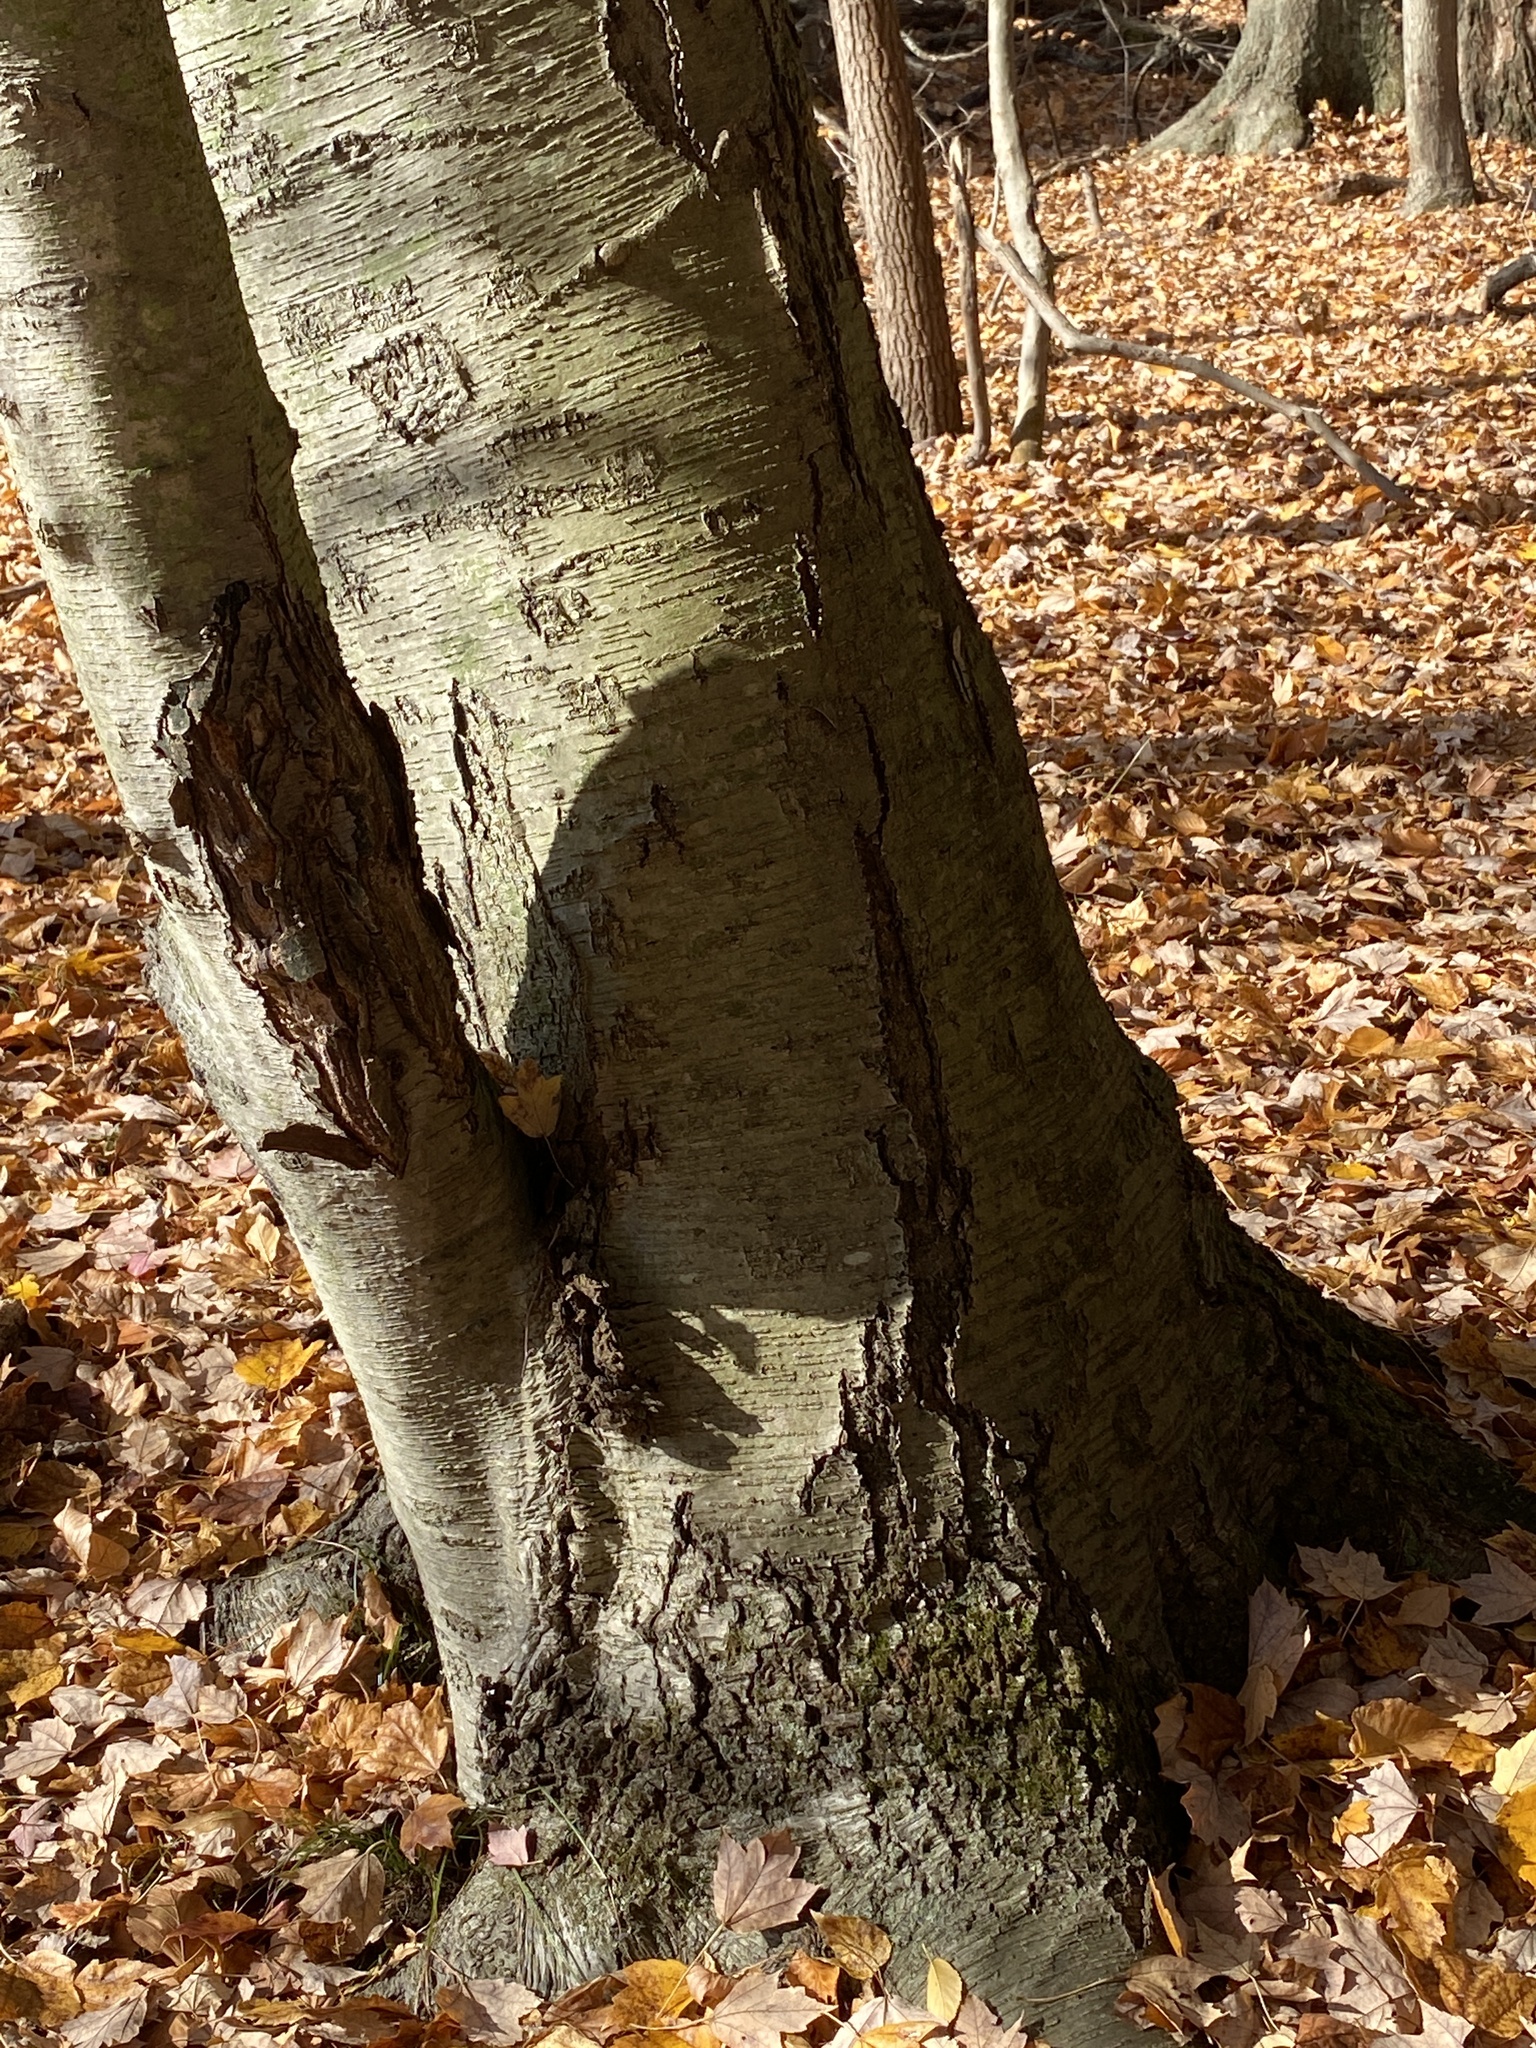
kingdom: Plantae
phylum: Tracheophyta
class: Magnoliopsida
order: Fagales
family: Betulaceae
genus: Betula
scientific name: Betula lenta
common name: Black birch
